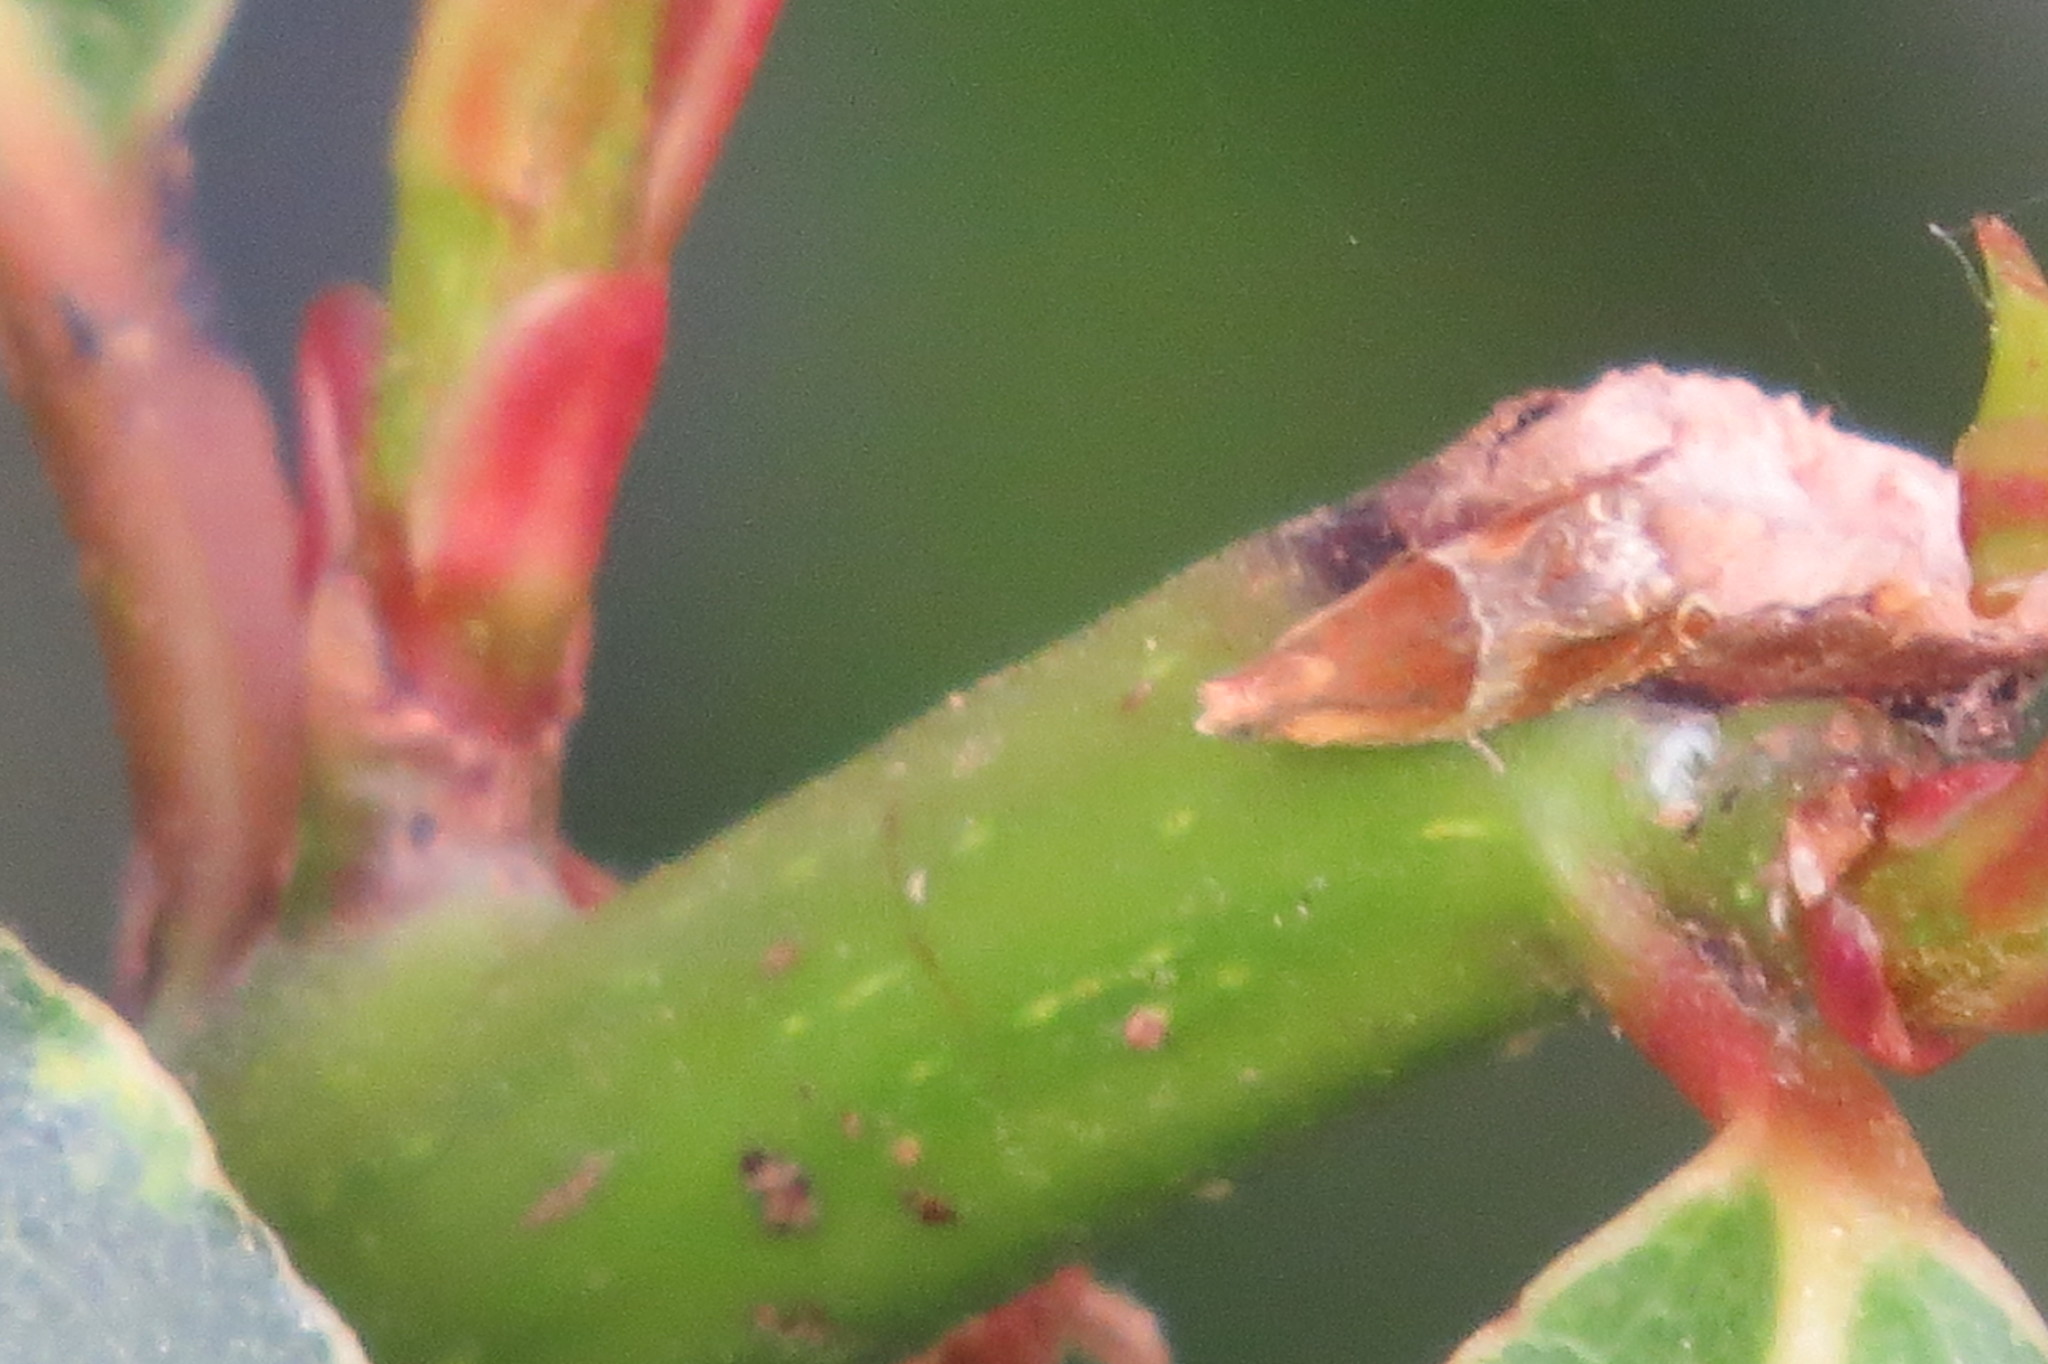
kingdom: Animalia
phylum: Arthropoda
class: Insecta
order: Lepidoptera
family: Tortricidae
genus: Ancylis
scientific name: Ancylis obtusana
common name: Small buckthorn roller
